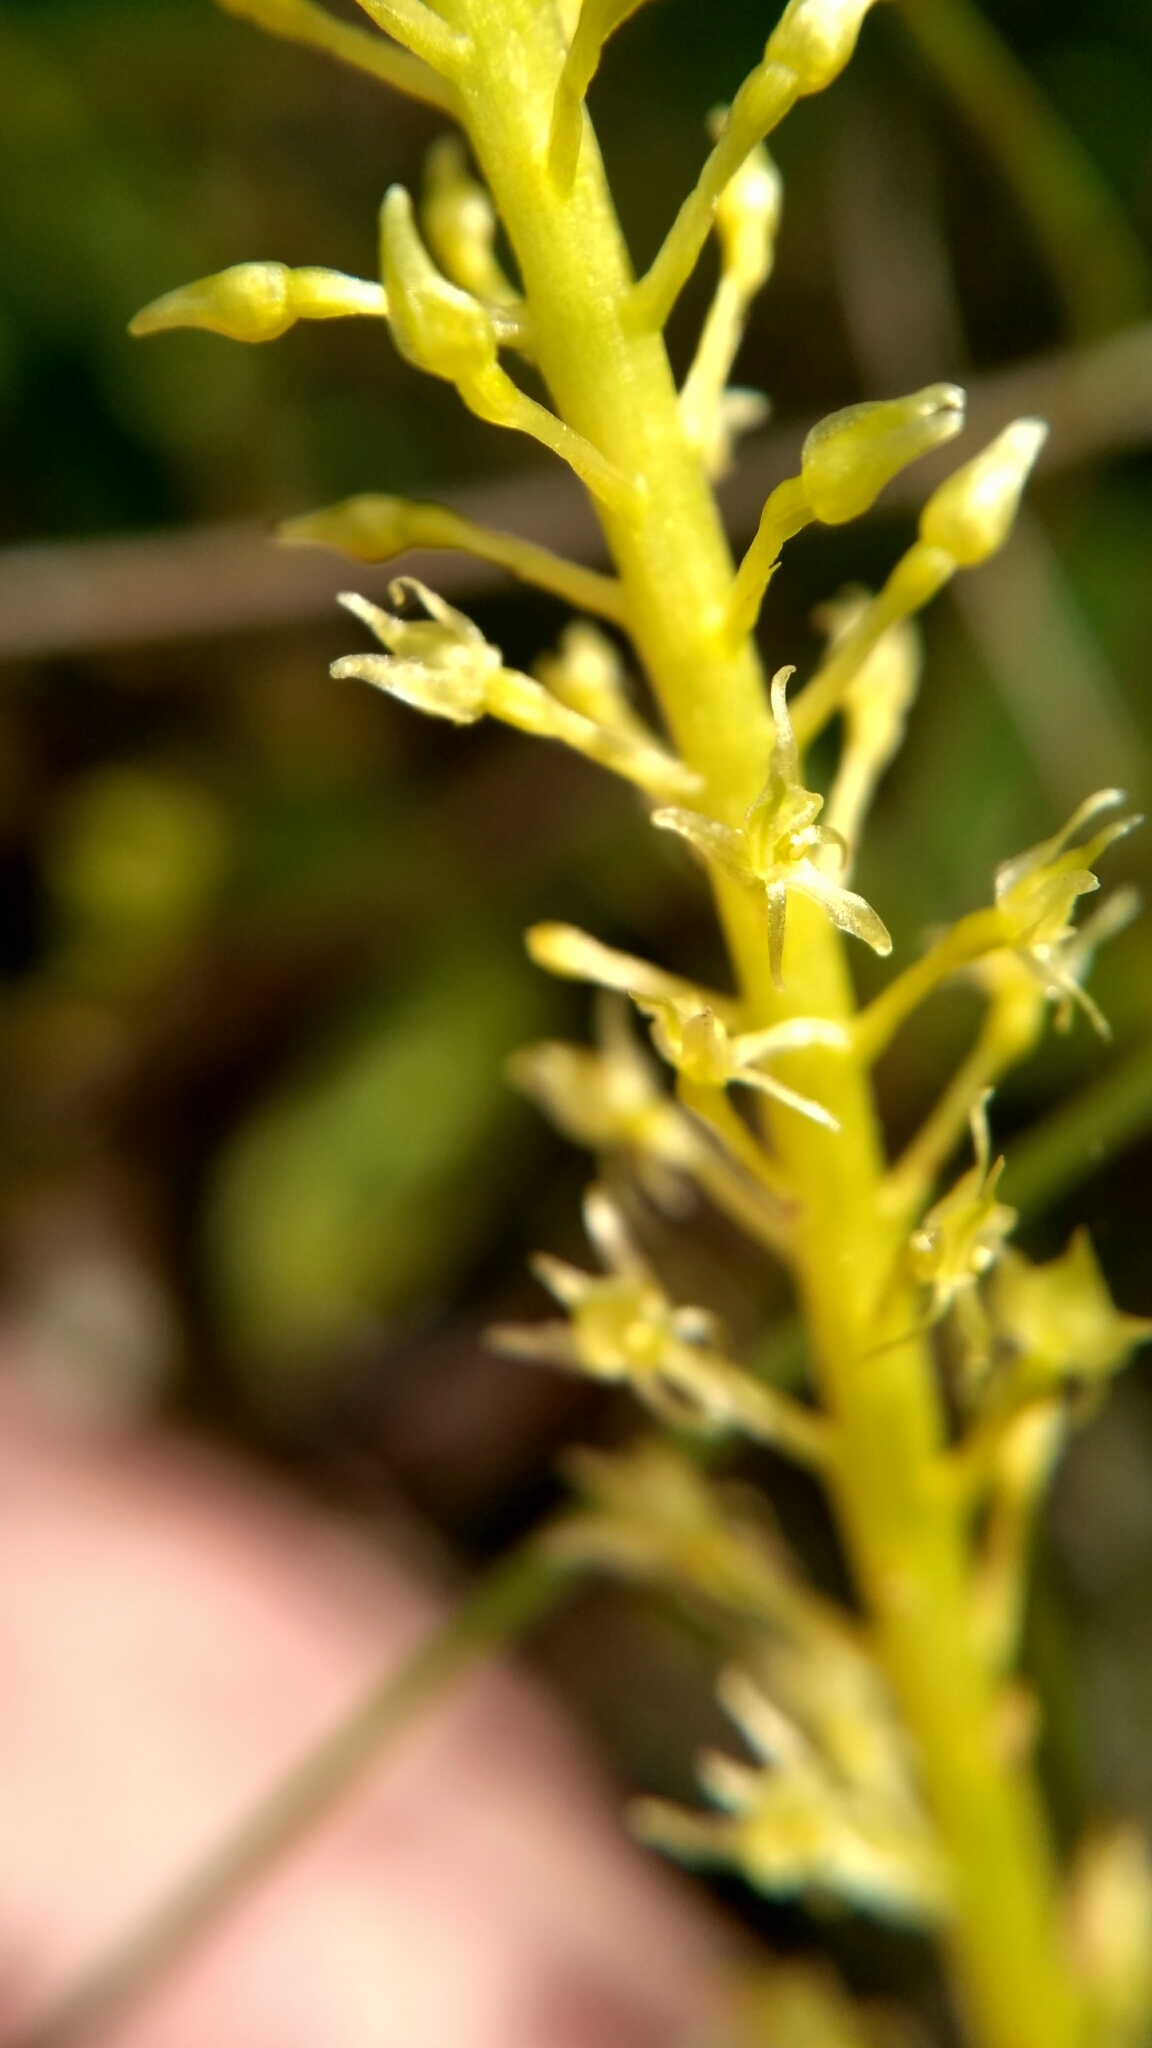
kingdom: Plantae
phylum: Tracheophyta
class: Liliopsida
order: Asparagales
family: Orchidaceae
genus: Malaxis
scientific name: Malaxis monophyllos
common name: White adder's-mouth
